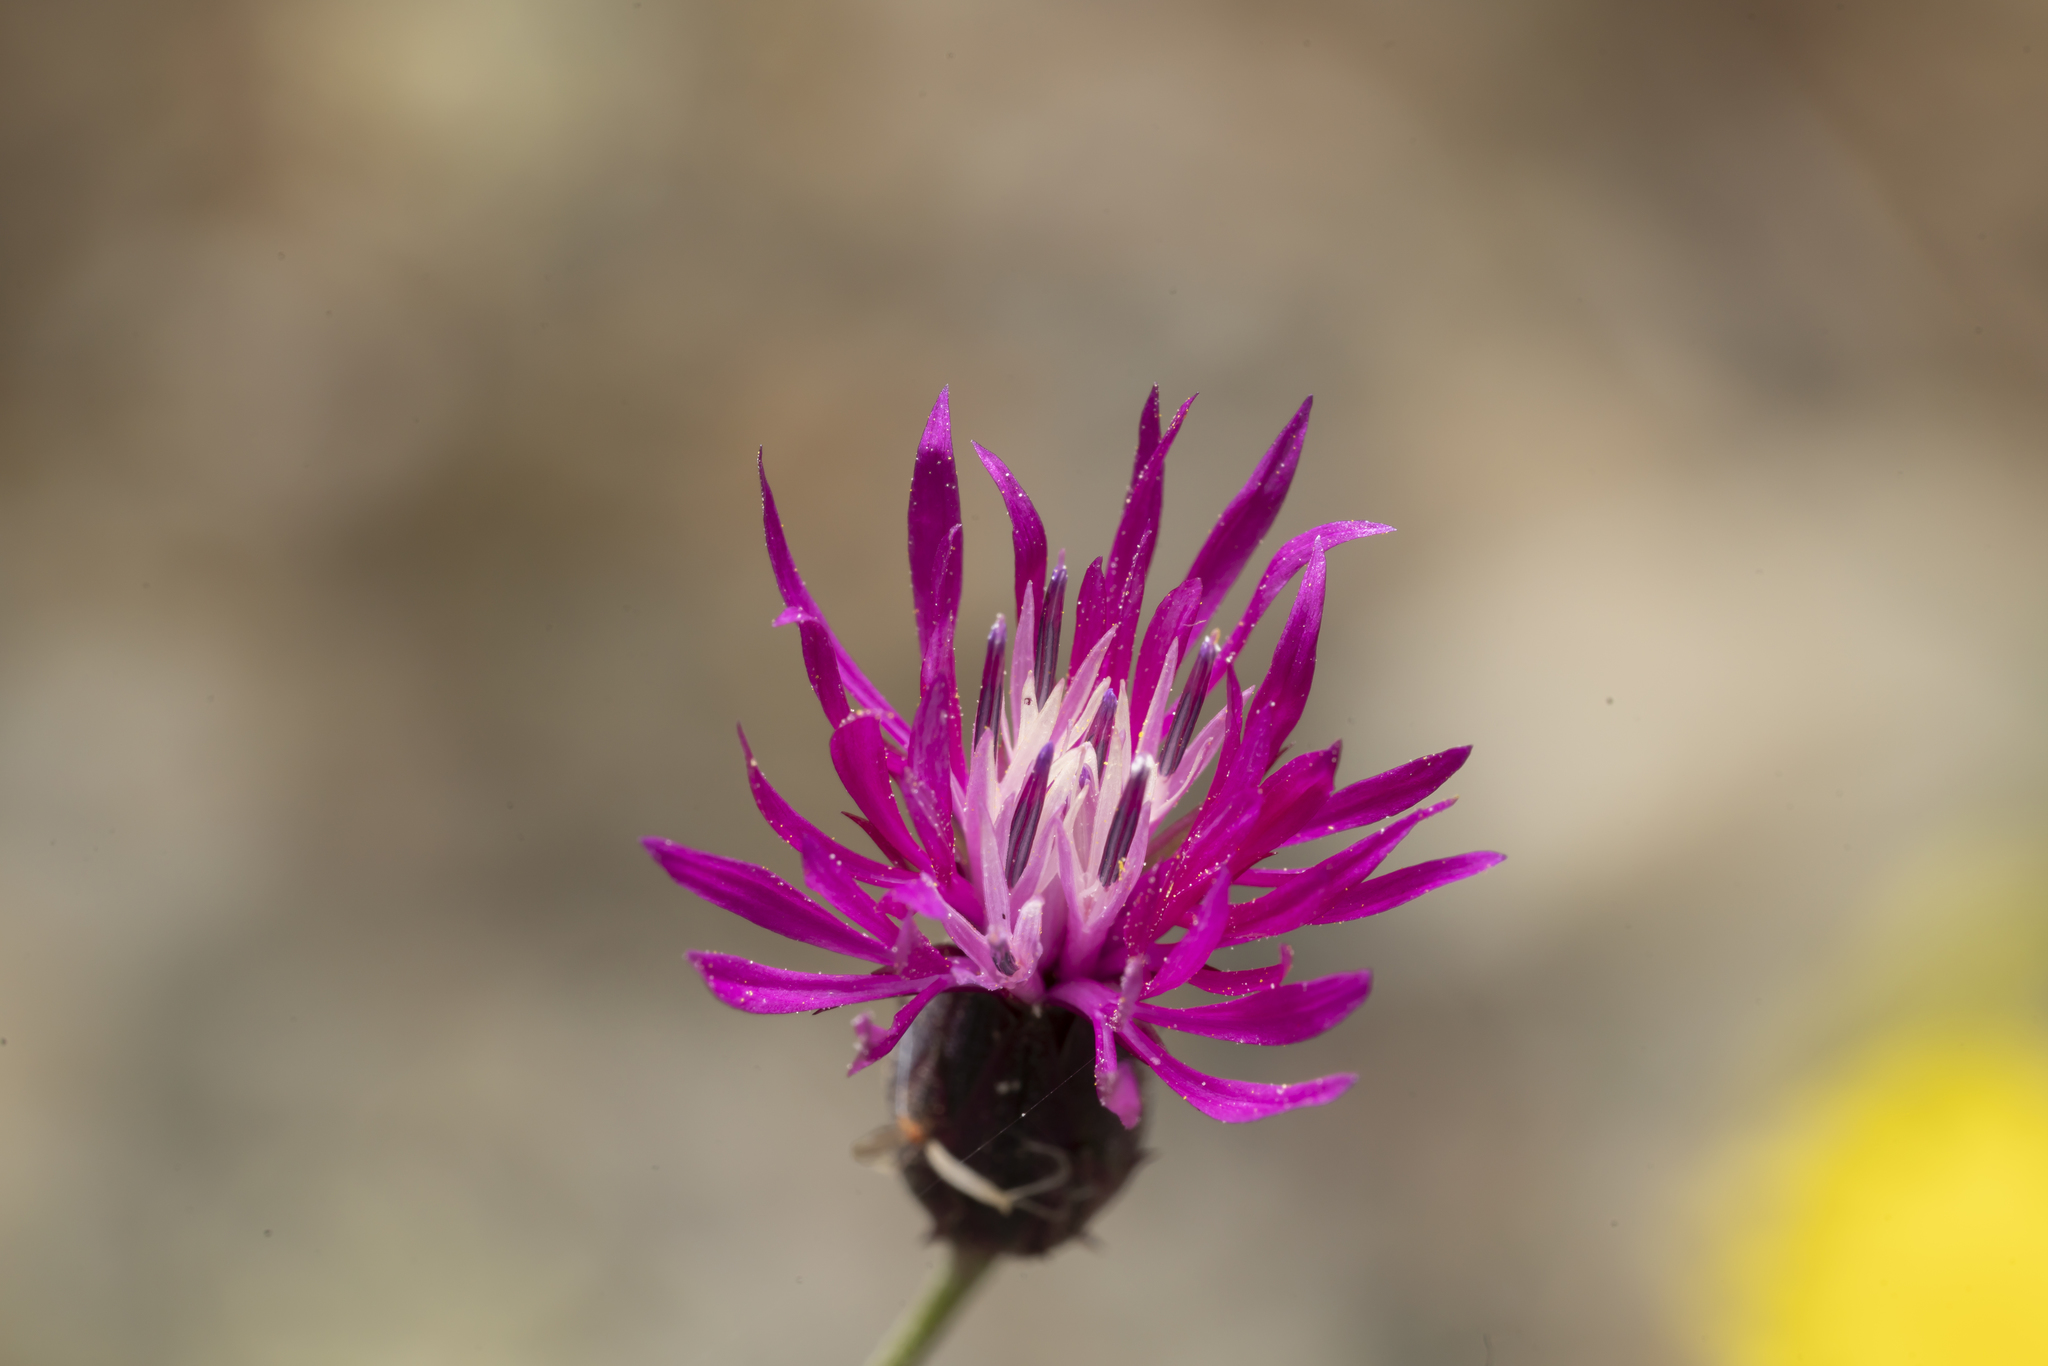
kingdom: Plantae
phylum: Tracheophyta
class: Magnoliopsida
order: Asterales
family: Asteraceae
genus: Crupina
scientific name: Crupina crupinastrum
